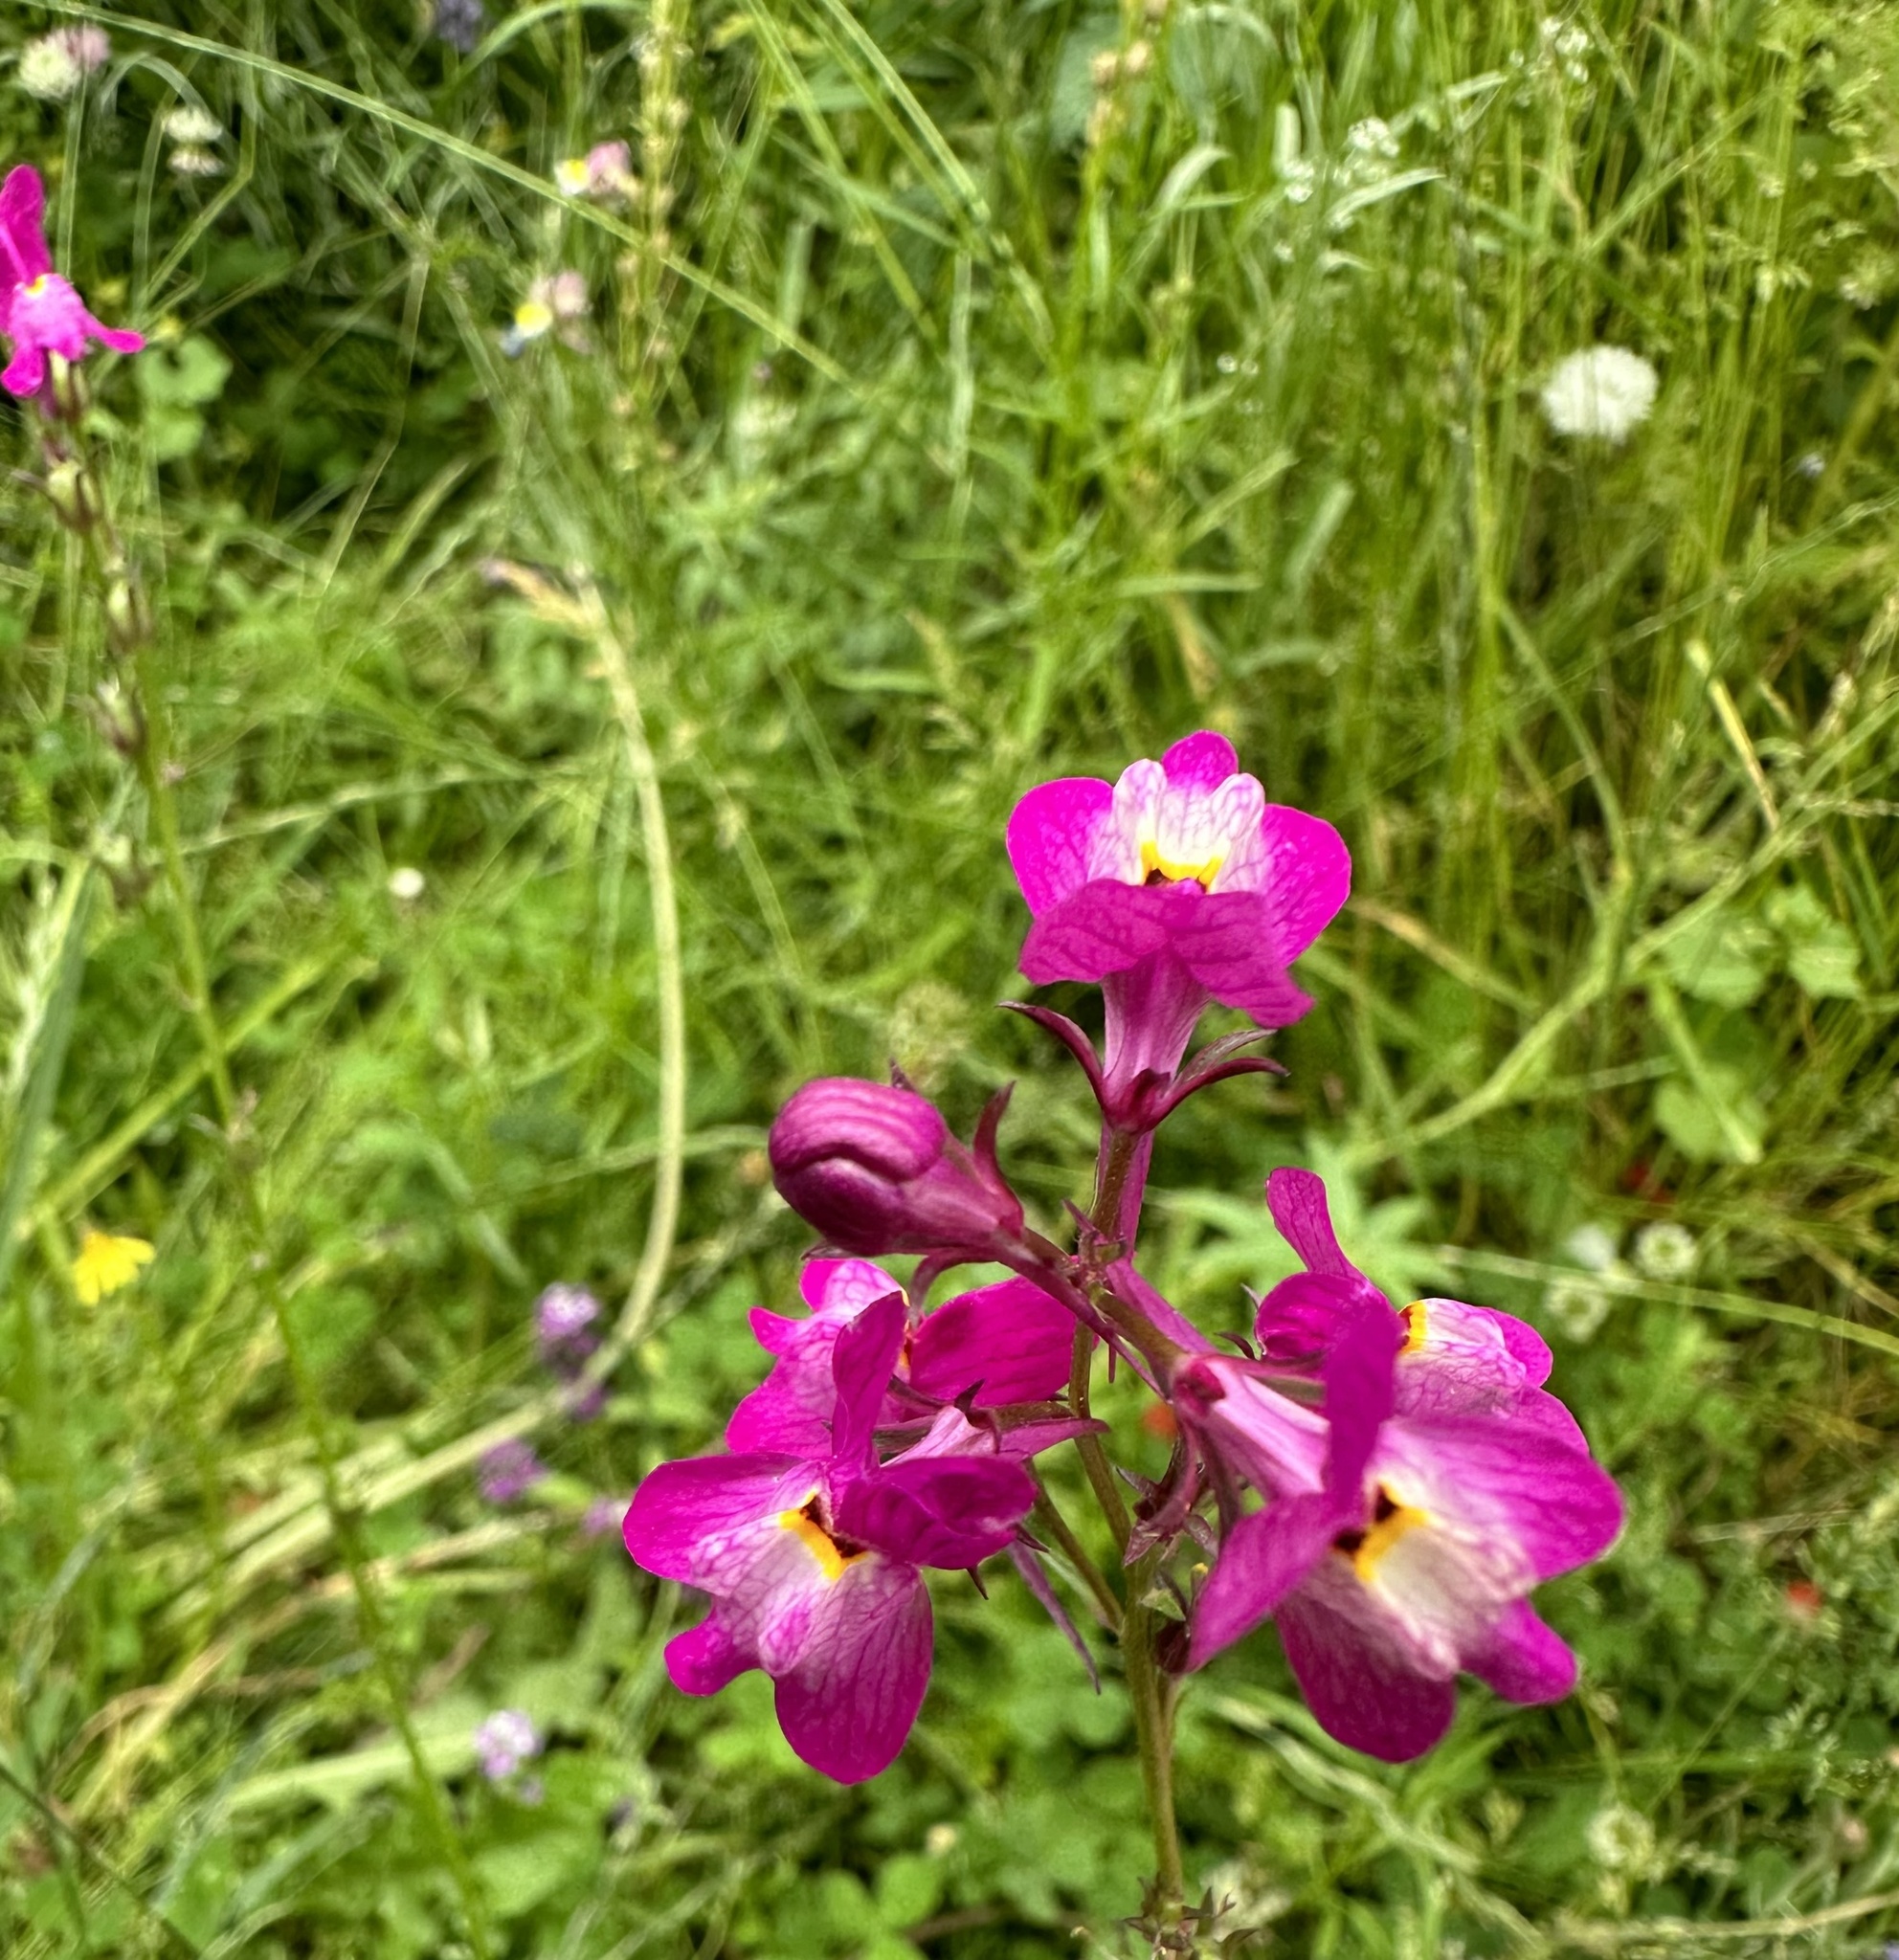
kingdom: Plantae
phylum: Tracheophyta
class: Magnoliopsida
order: Lamiales
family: Plantaginaceae
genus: Linaria
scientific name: Linaria maroccana
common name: Moroccan toadflax
